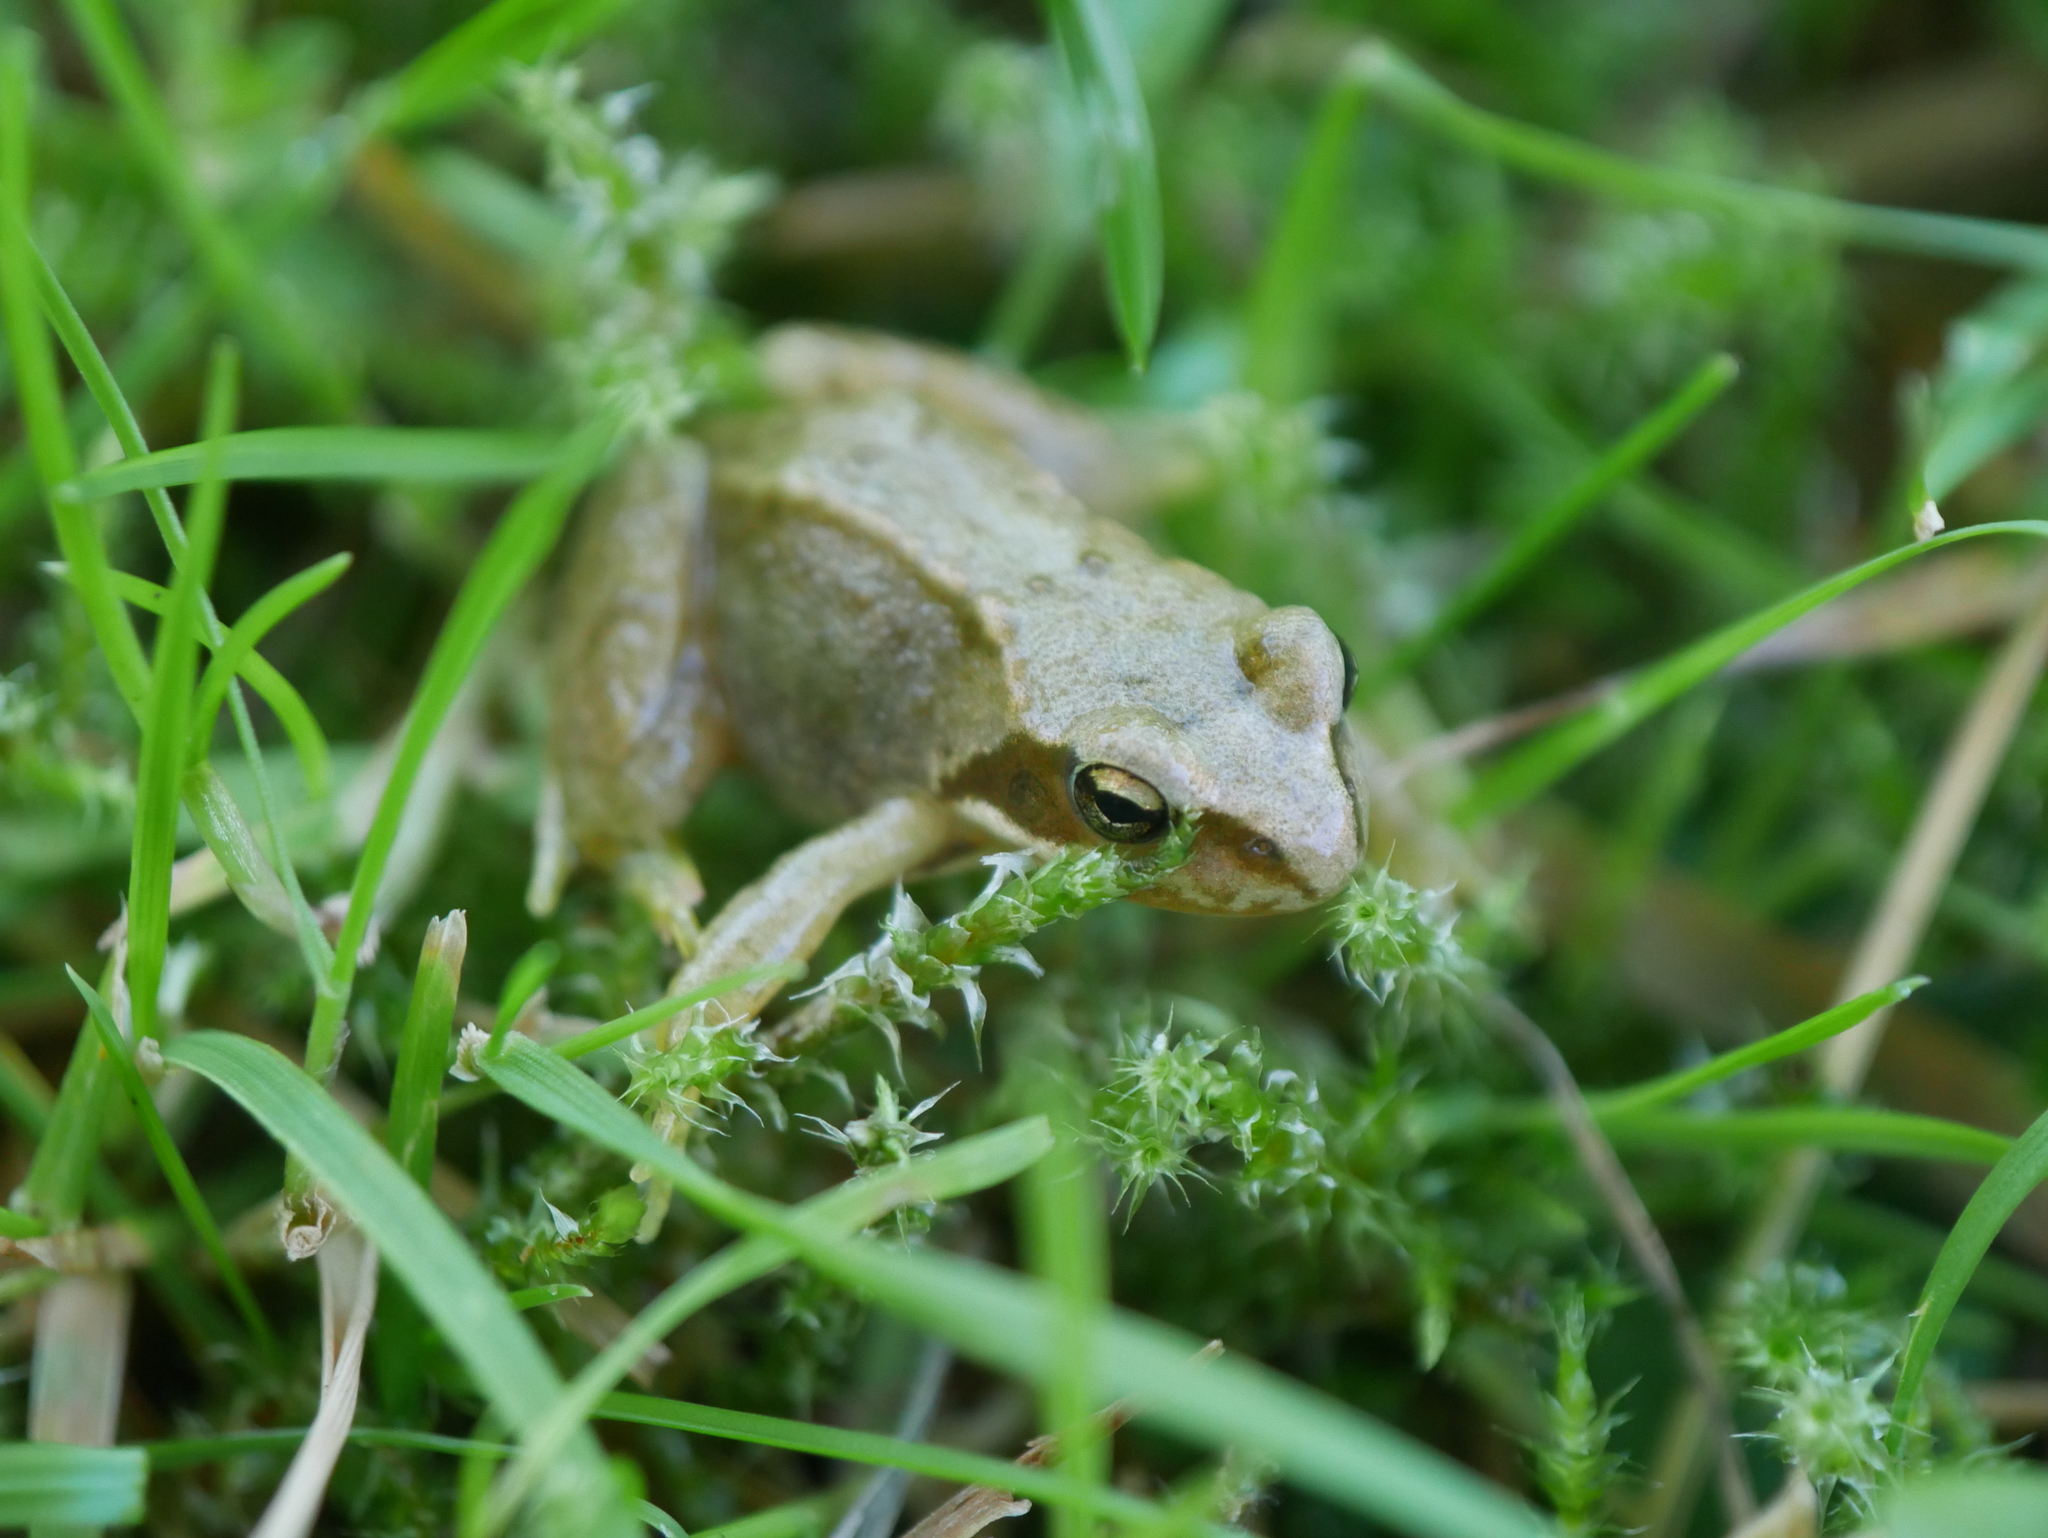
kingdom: Animalia
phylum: Chordata
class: Amphibia
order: Anura
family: Ranidae
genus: Rana
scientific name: Rana temporaria
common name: Common frog
